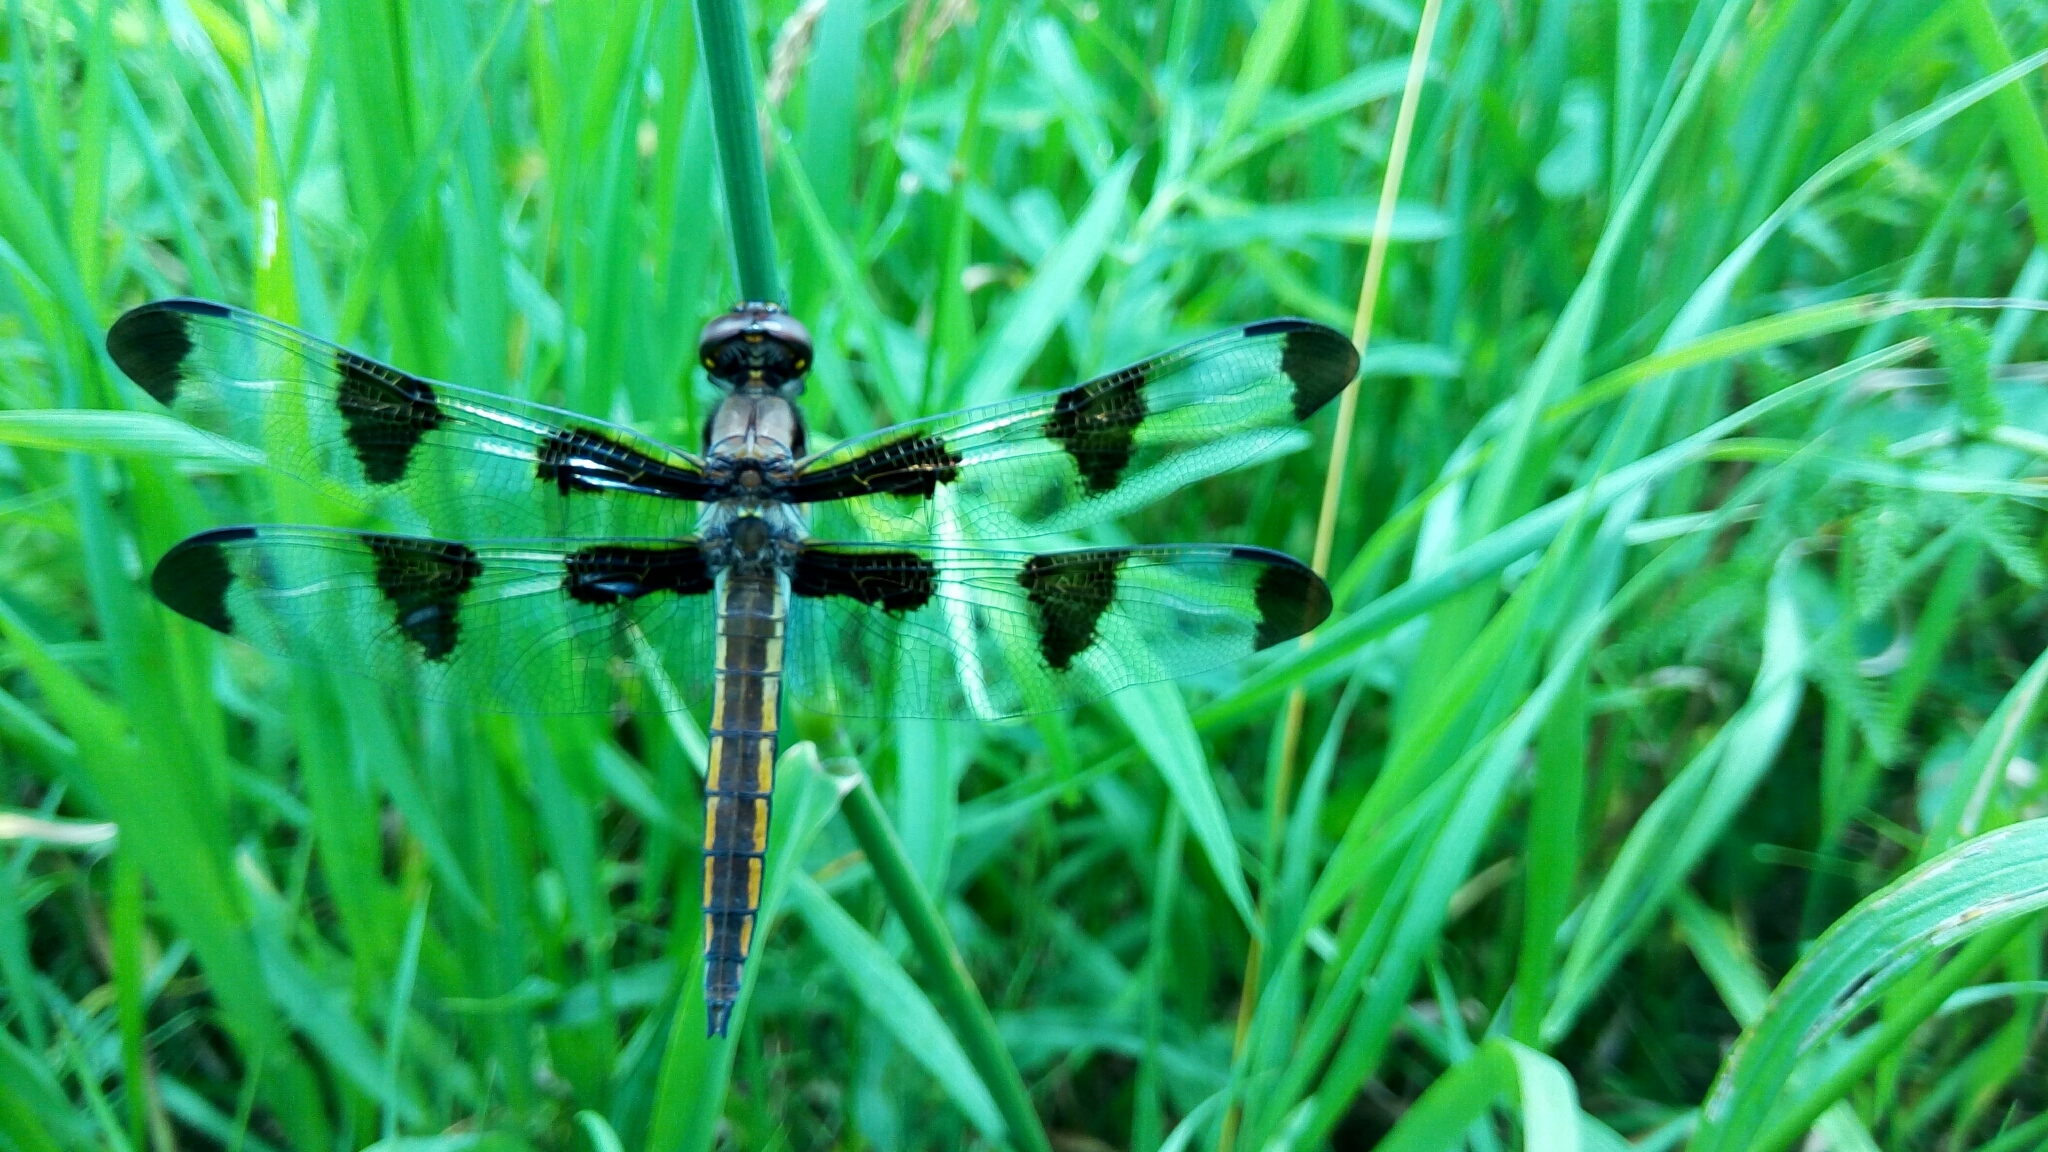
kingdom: Animalia
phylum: Arthropoda
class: Insecta
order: Odonata
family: Libellulidae
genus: Libellula
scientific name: Libellula pulchella
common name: Twelve-spotted skimmer
